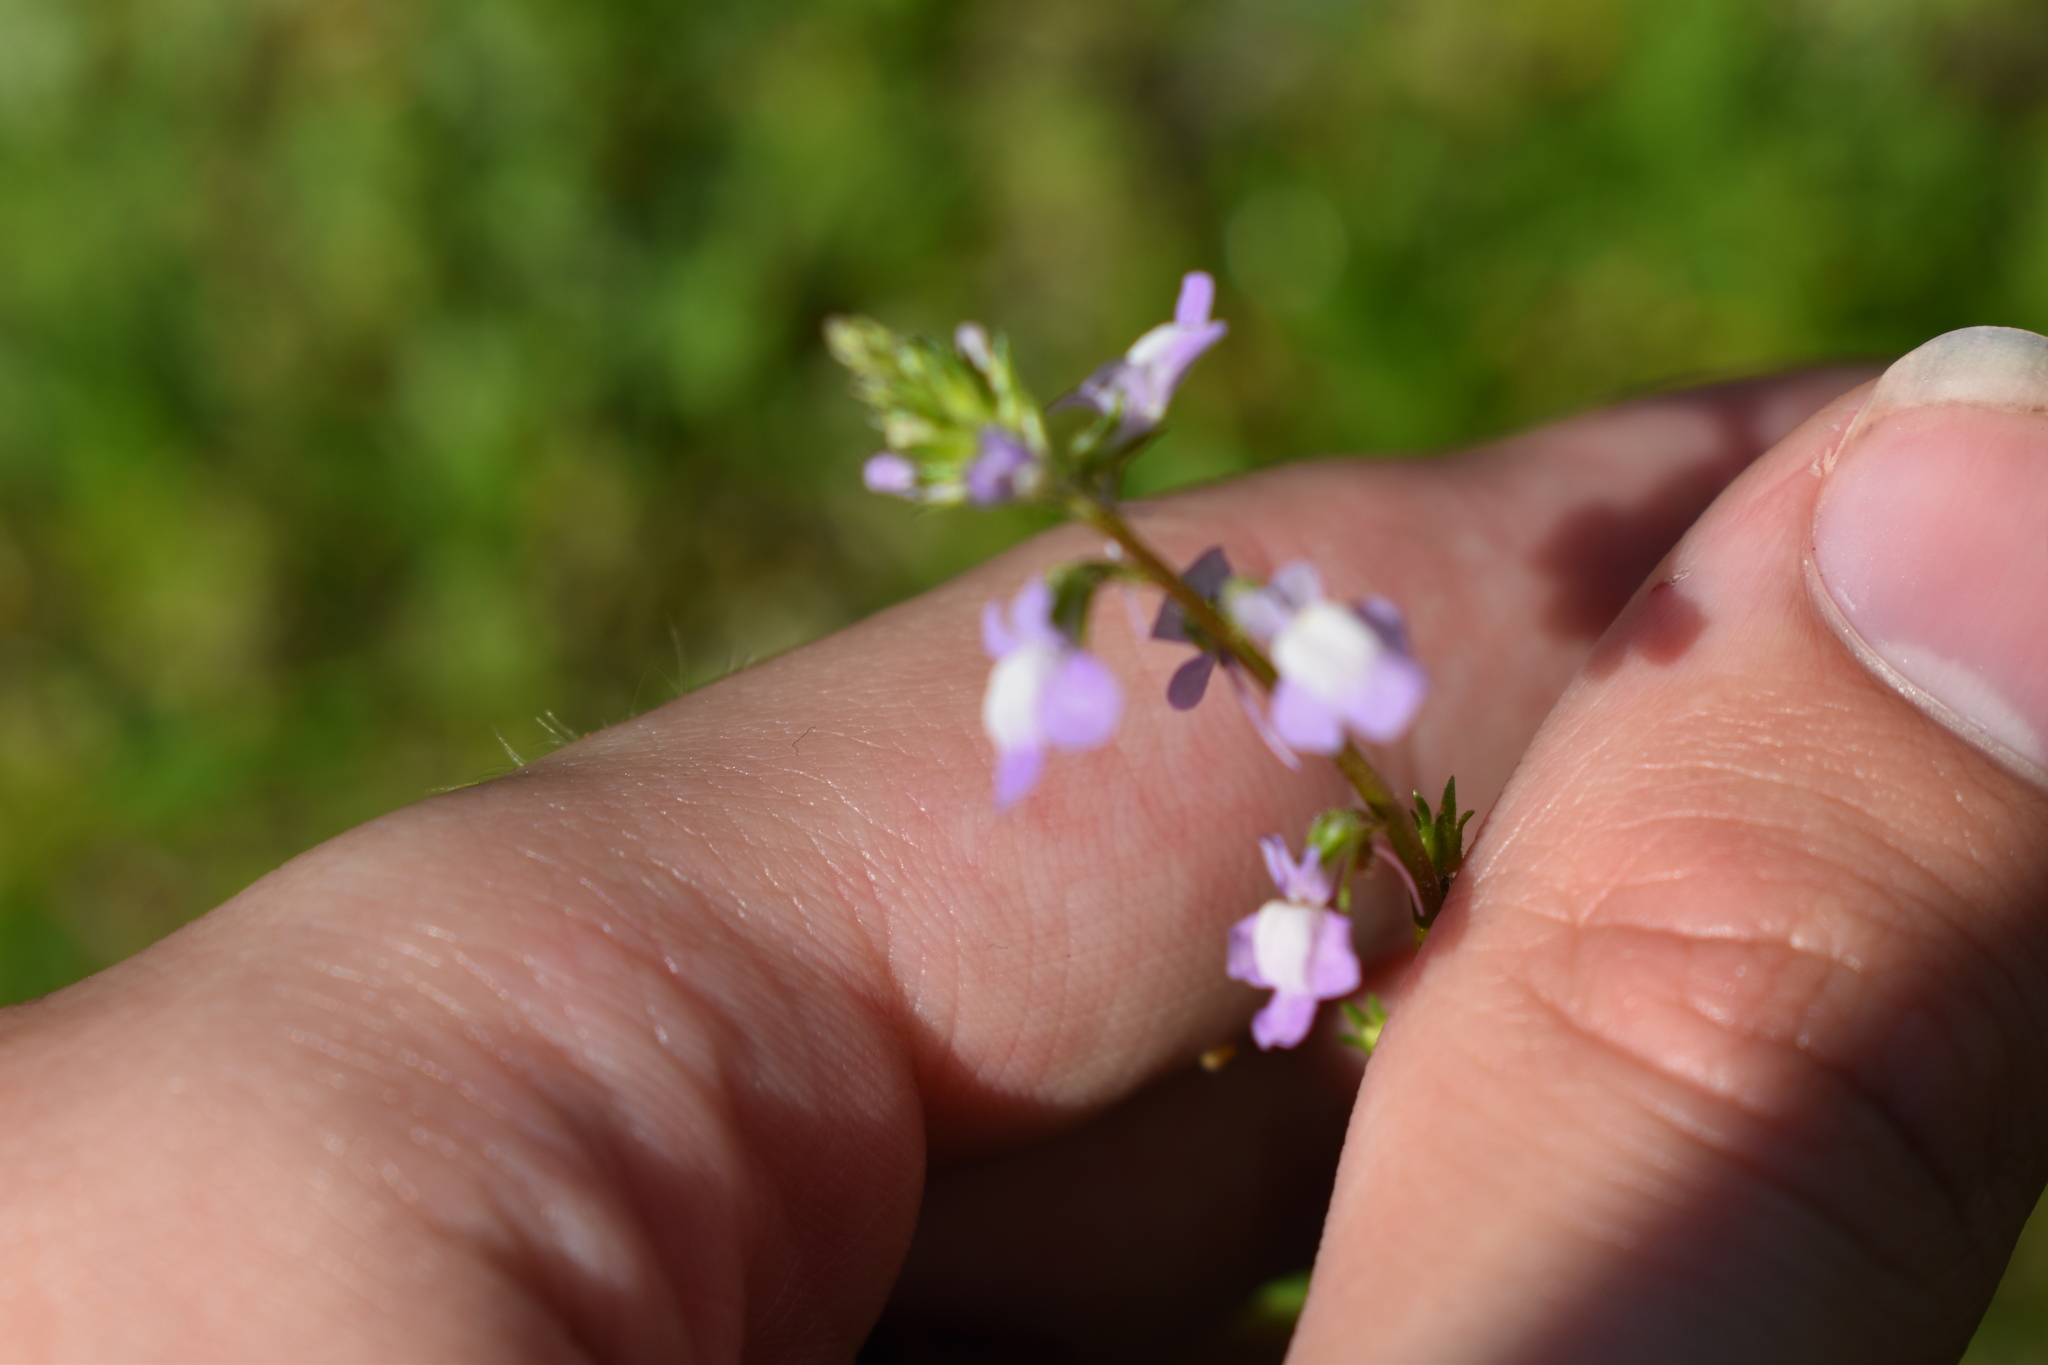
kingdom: Plantae
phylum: Tracheophyta
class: Magnoliopsida
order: Lamiales
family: Plantaginaceae
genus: Nuttallanthus
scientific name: Nuttallanthus canadensis
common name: Blue toadflax
